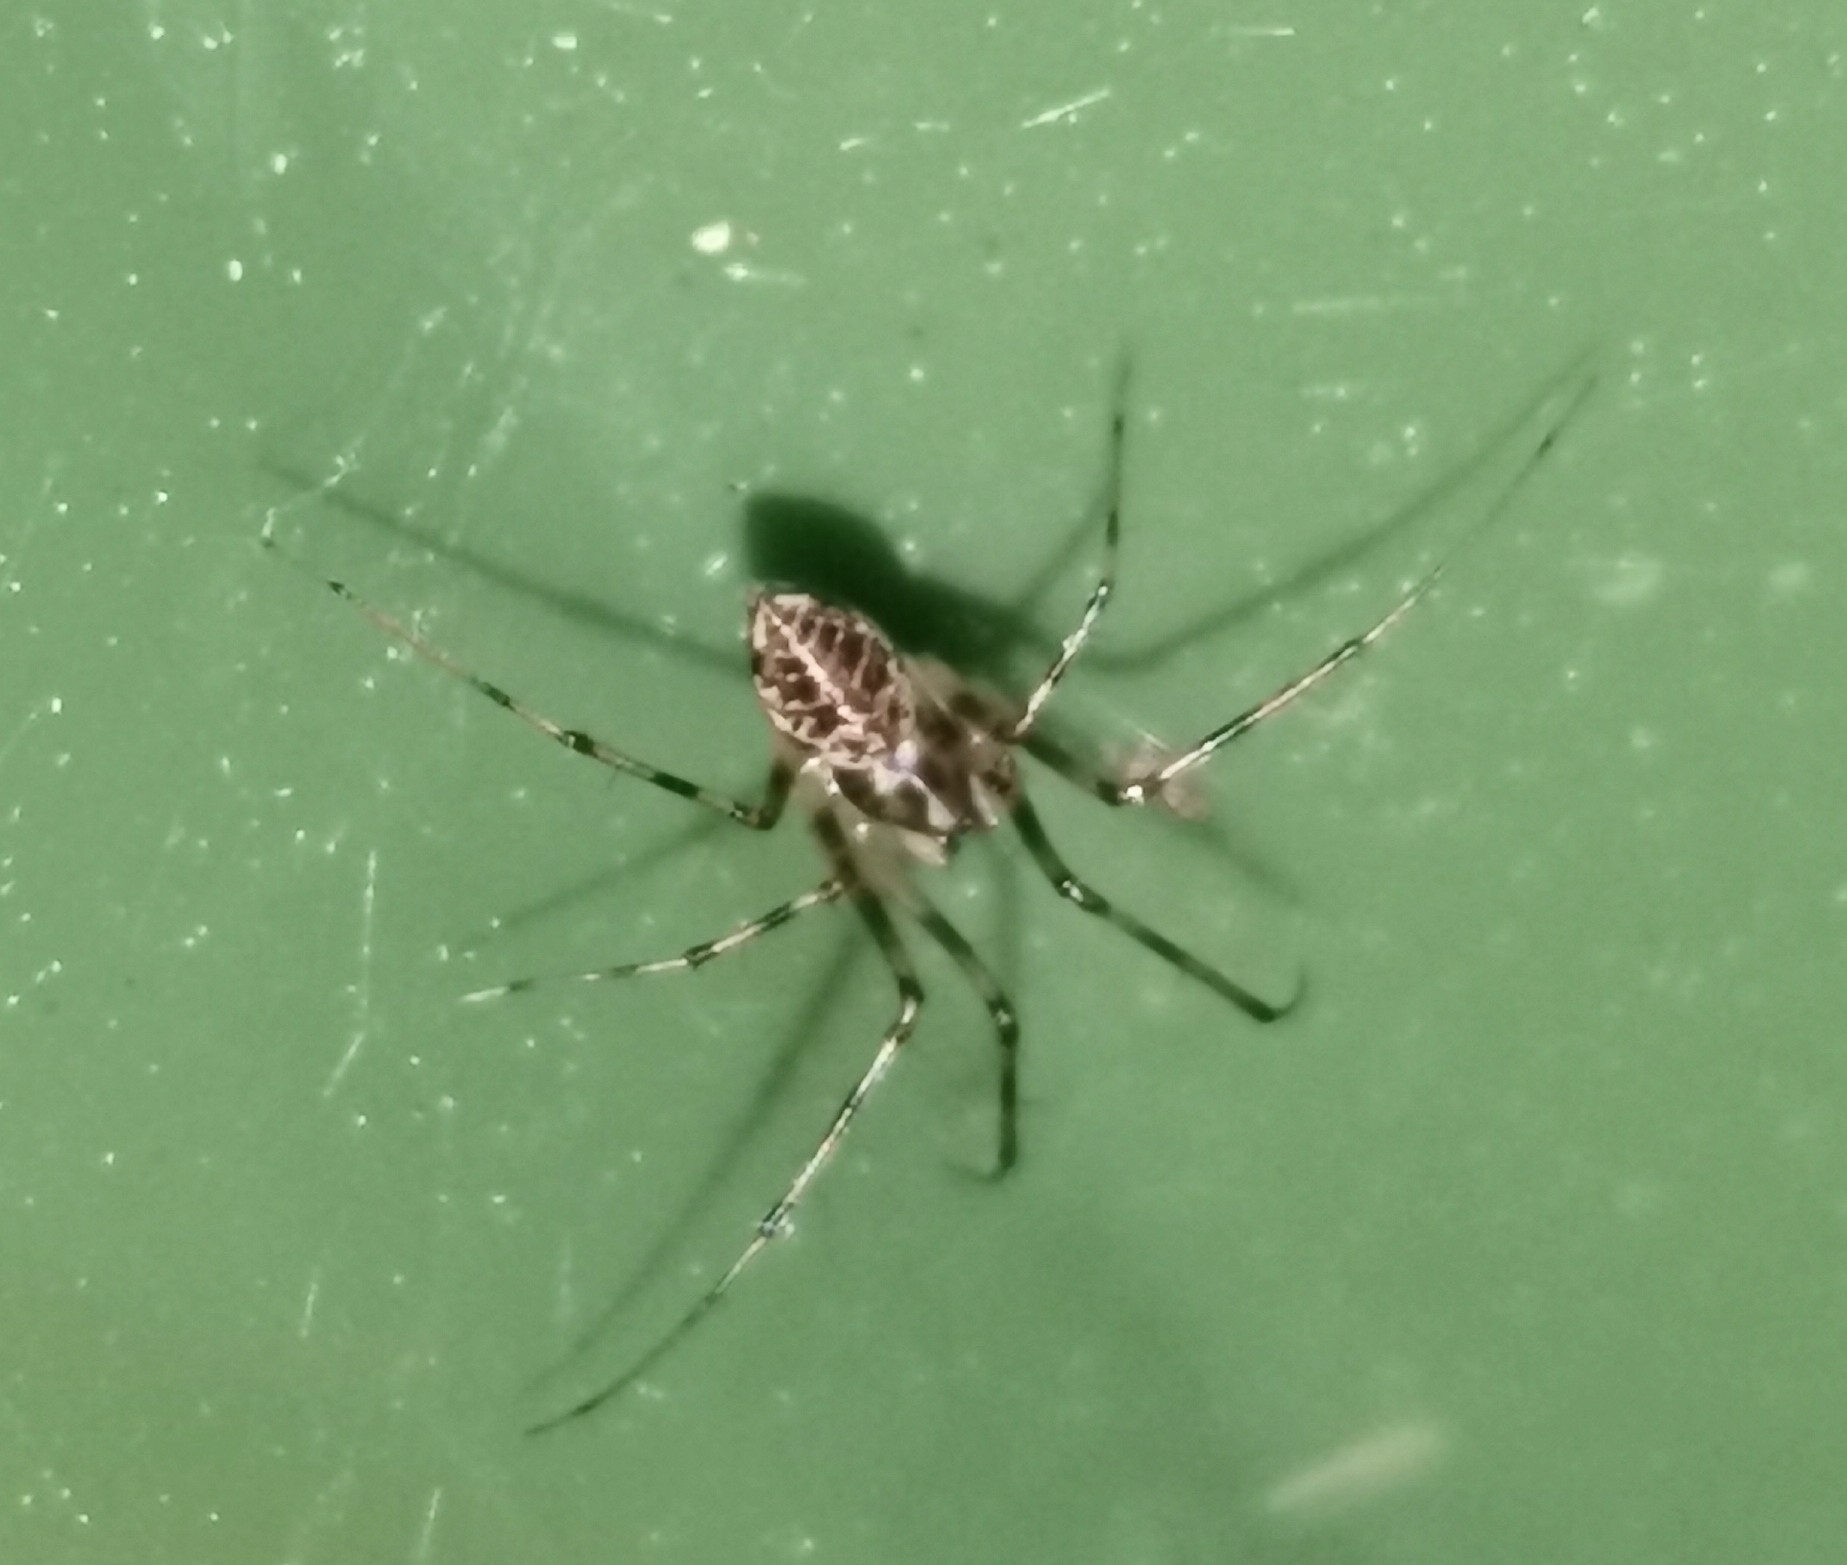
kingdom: Animalia
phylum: Arthropoda
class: Arachnida
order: Araneae
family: Linyphiidae
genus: Drapetisca
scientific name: Drapetisca socialis
